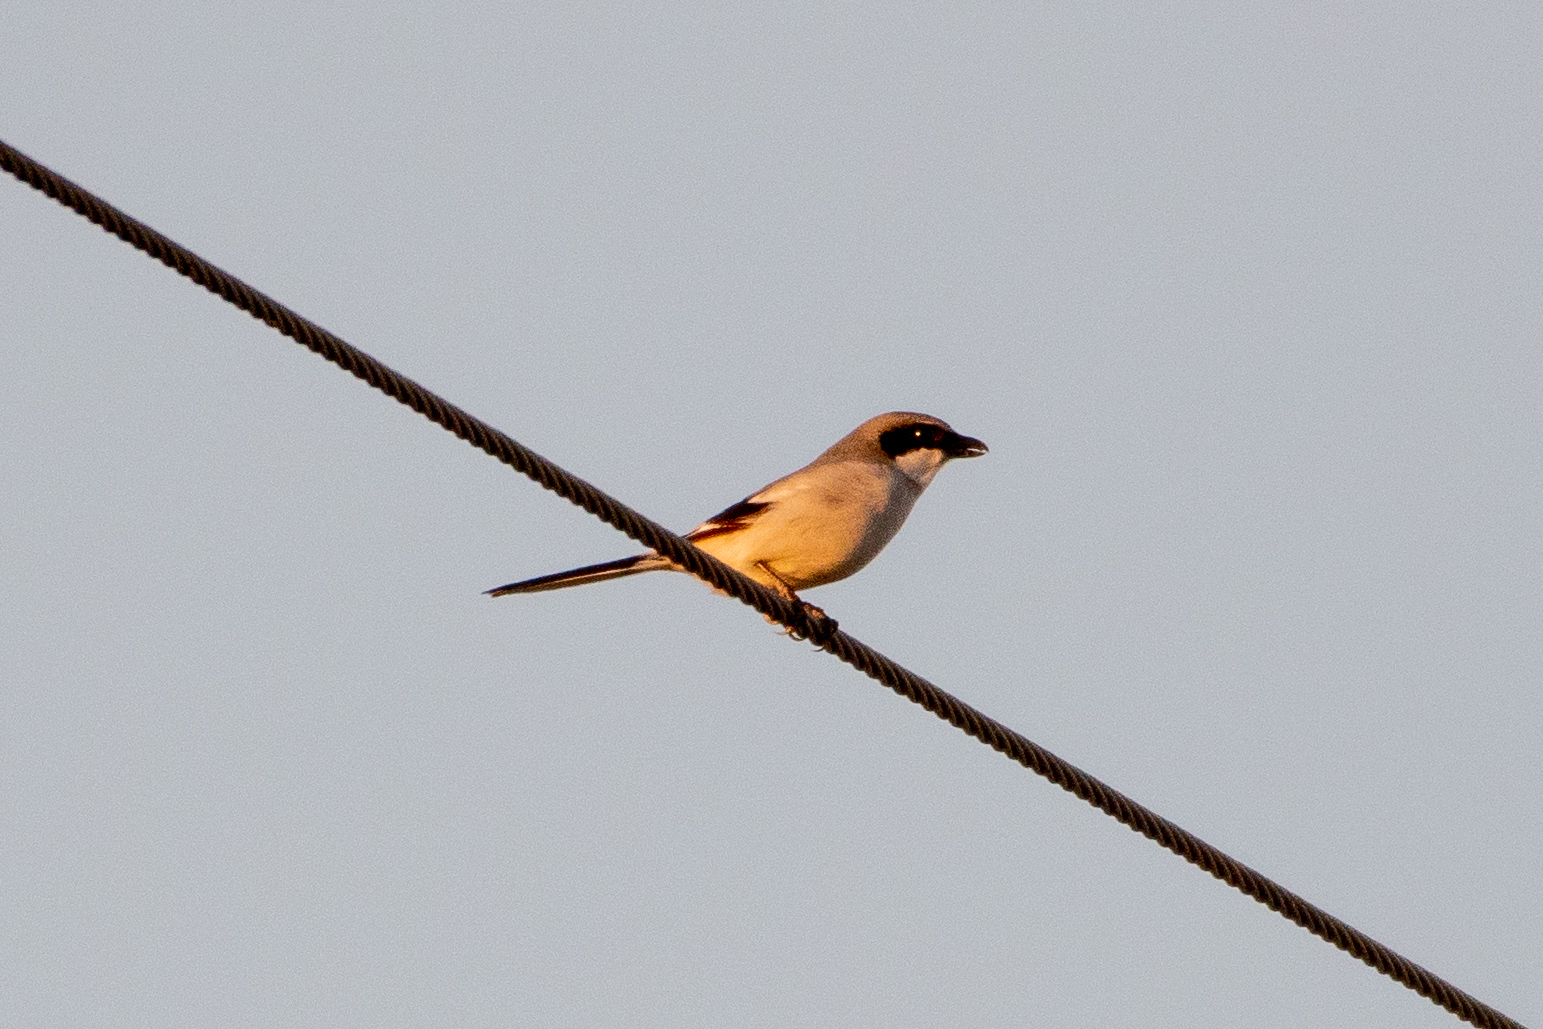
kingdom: Animalia
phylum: Chordata
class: Aves
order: Passeriformes
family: Laniidae
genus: Lanius
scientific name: Lanius ludovicianus
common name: Loggerhead shrike
